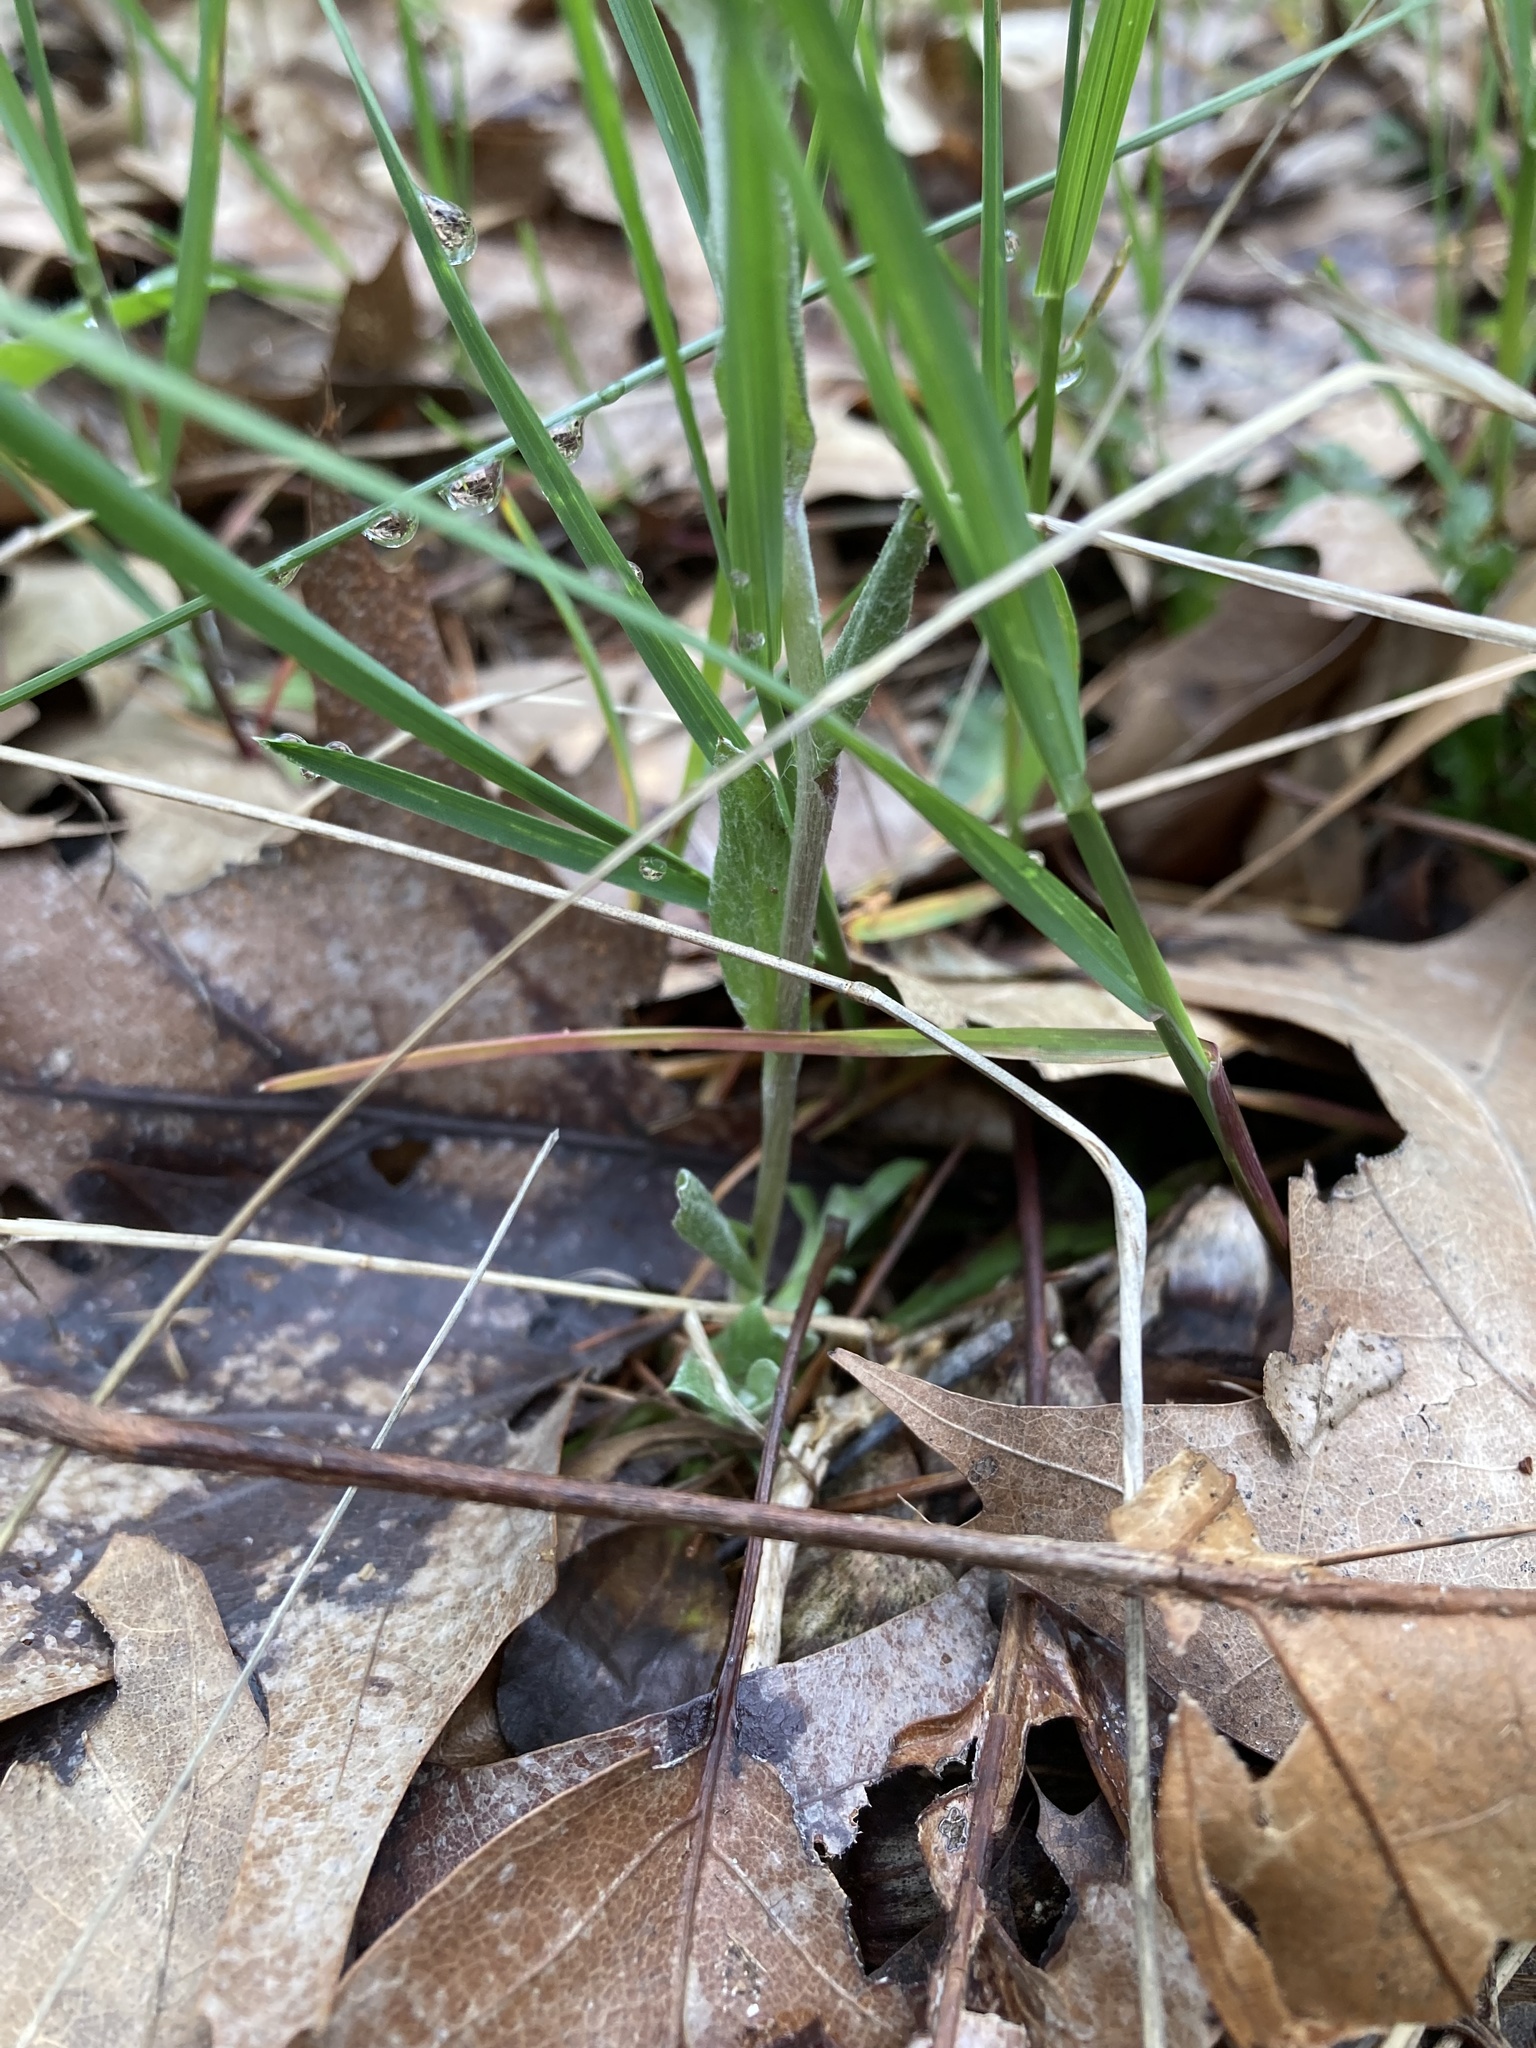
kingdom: Plantae
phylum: Tracheophyta
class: Magnoliopsida
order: Asterales
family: Asteraceae
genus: Antennaria
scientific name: Antennaria neglecta
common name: Field pussytoes
